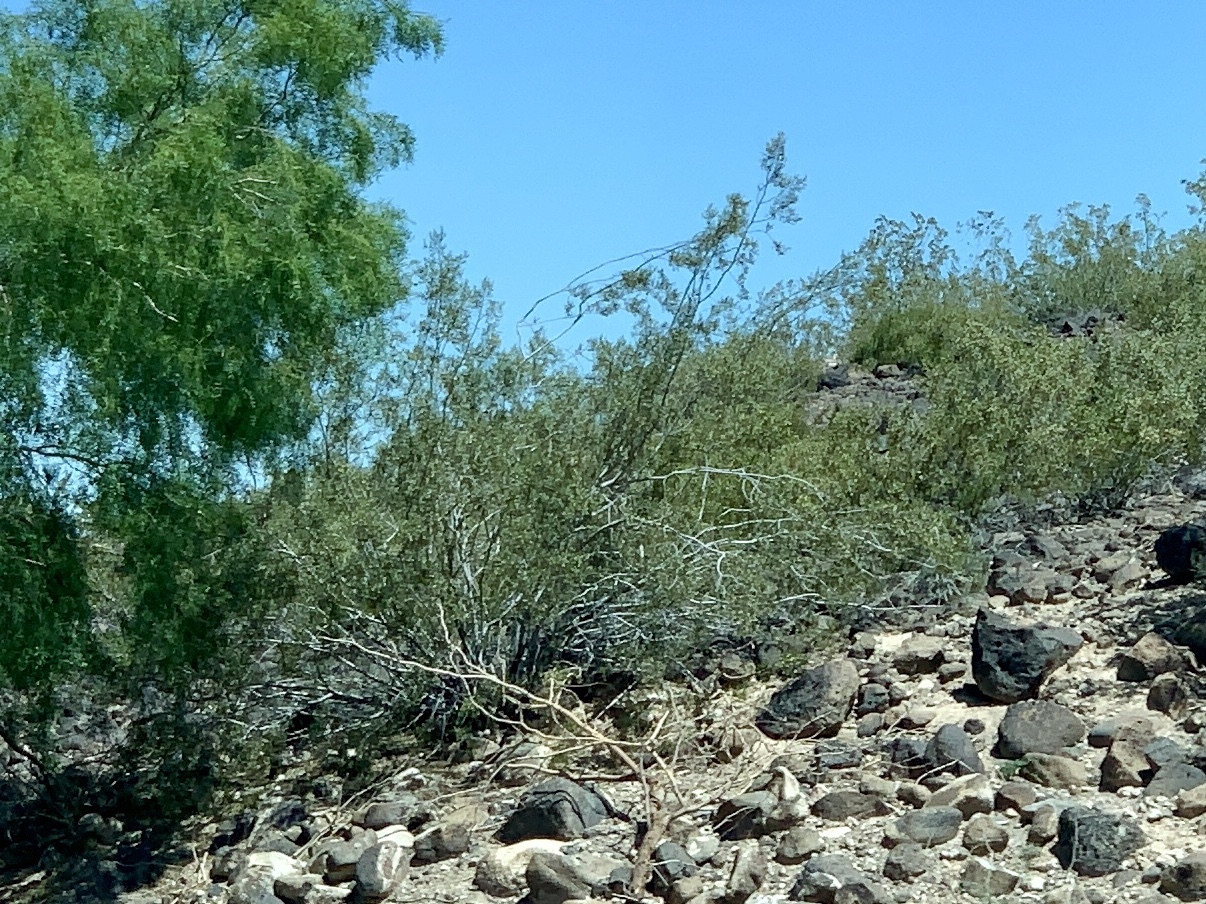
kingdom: Plantae
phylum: Tracheophyta
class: Magnoliopsida
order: Zygophyllales
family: Zygophyllaceae
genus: Larrea
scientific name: Larrea tridentata
